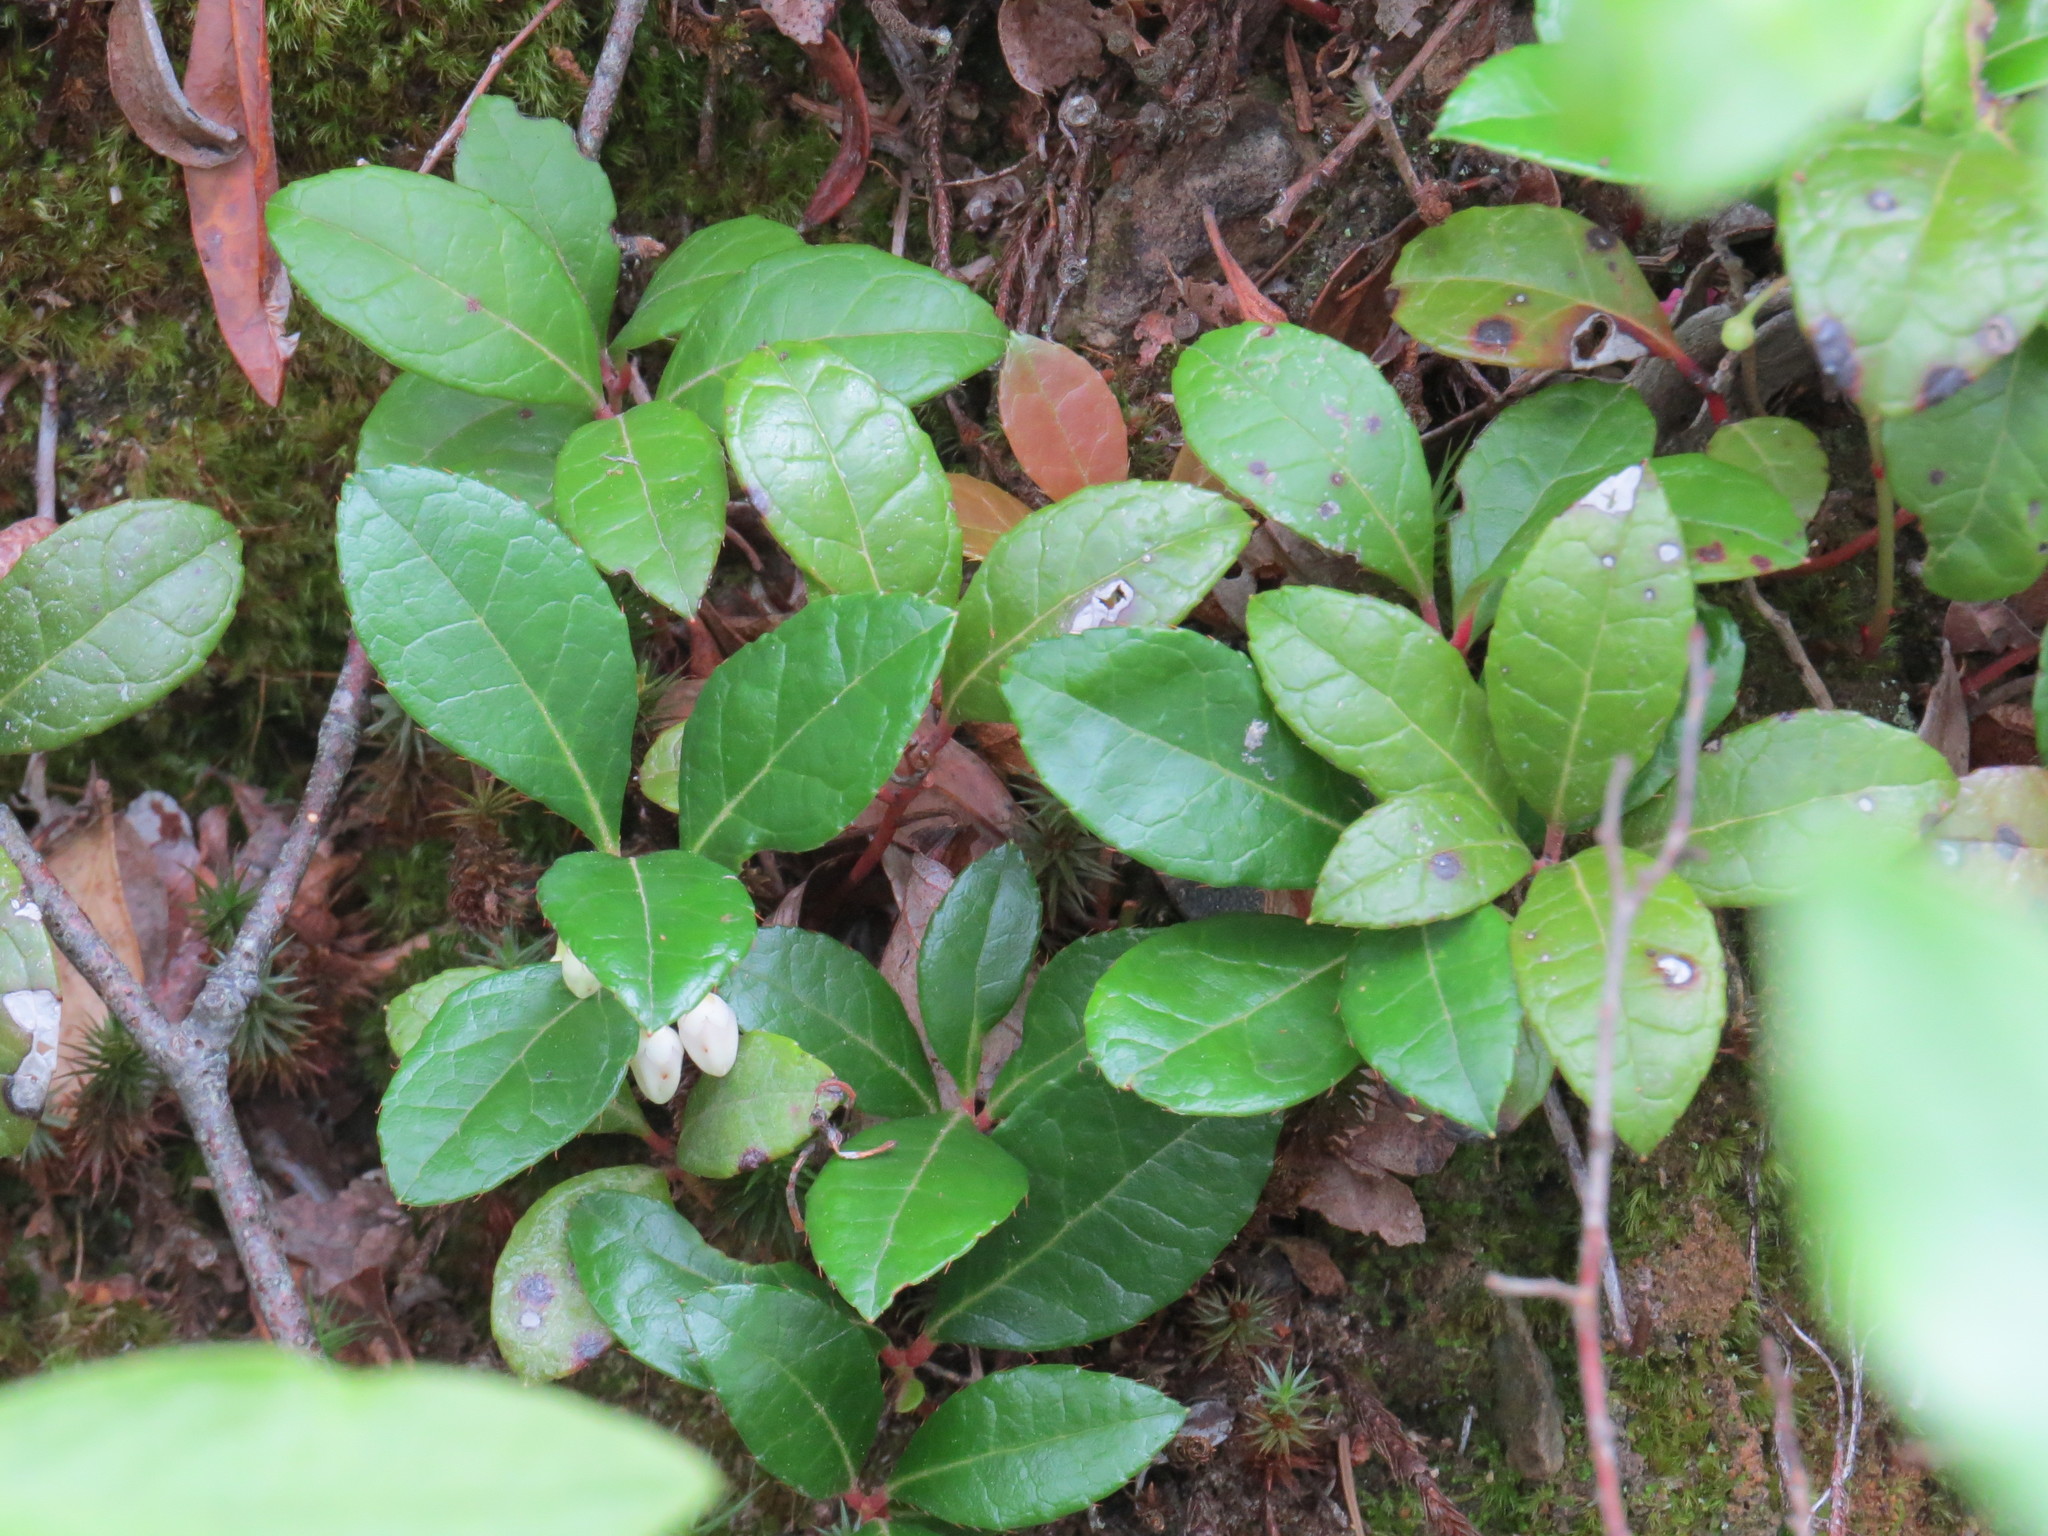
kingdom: Plantae
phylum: Tracheophyta
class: Magnoliopsida
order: Ericales
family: Ericaceae
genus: Gaultheria
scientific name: Gaultheria procumbens
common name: Checkerberry
